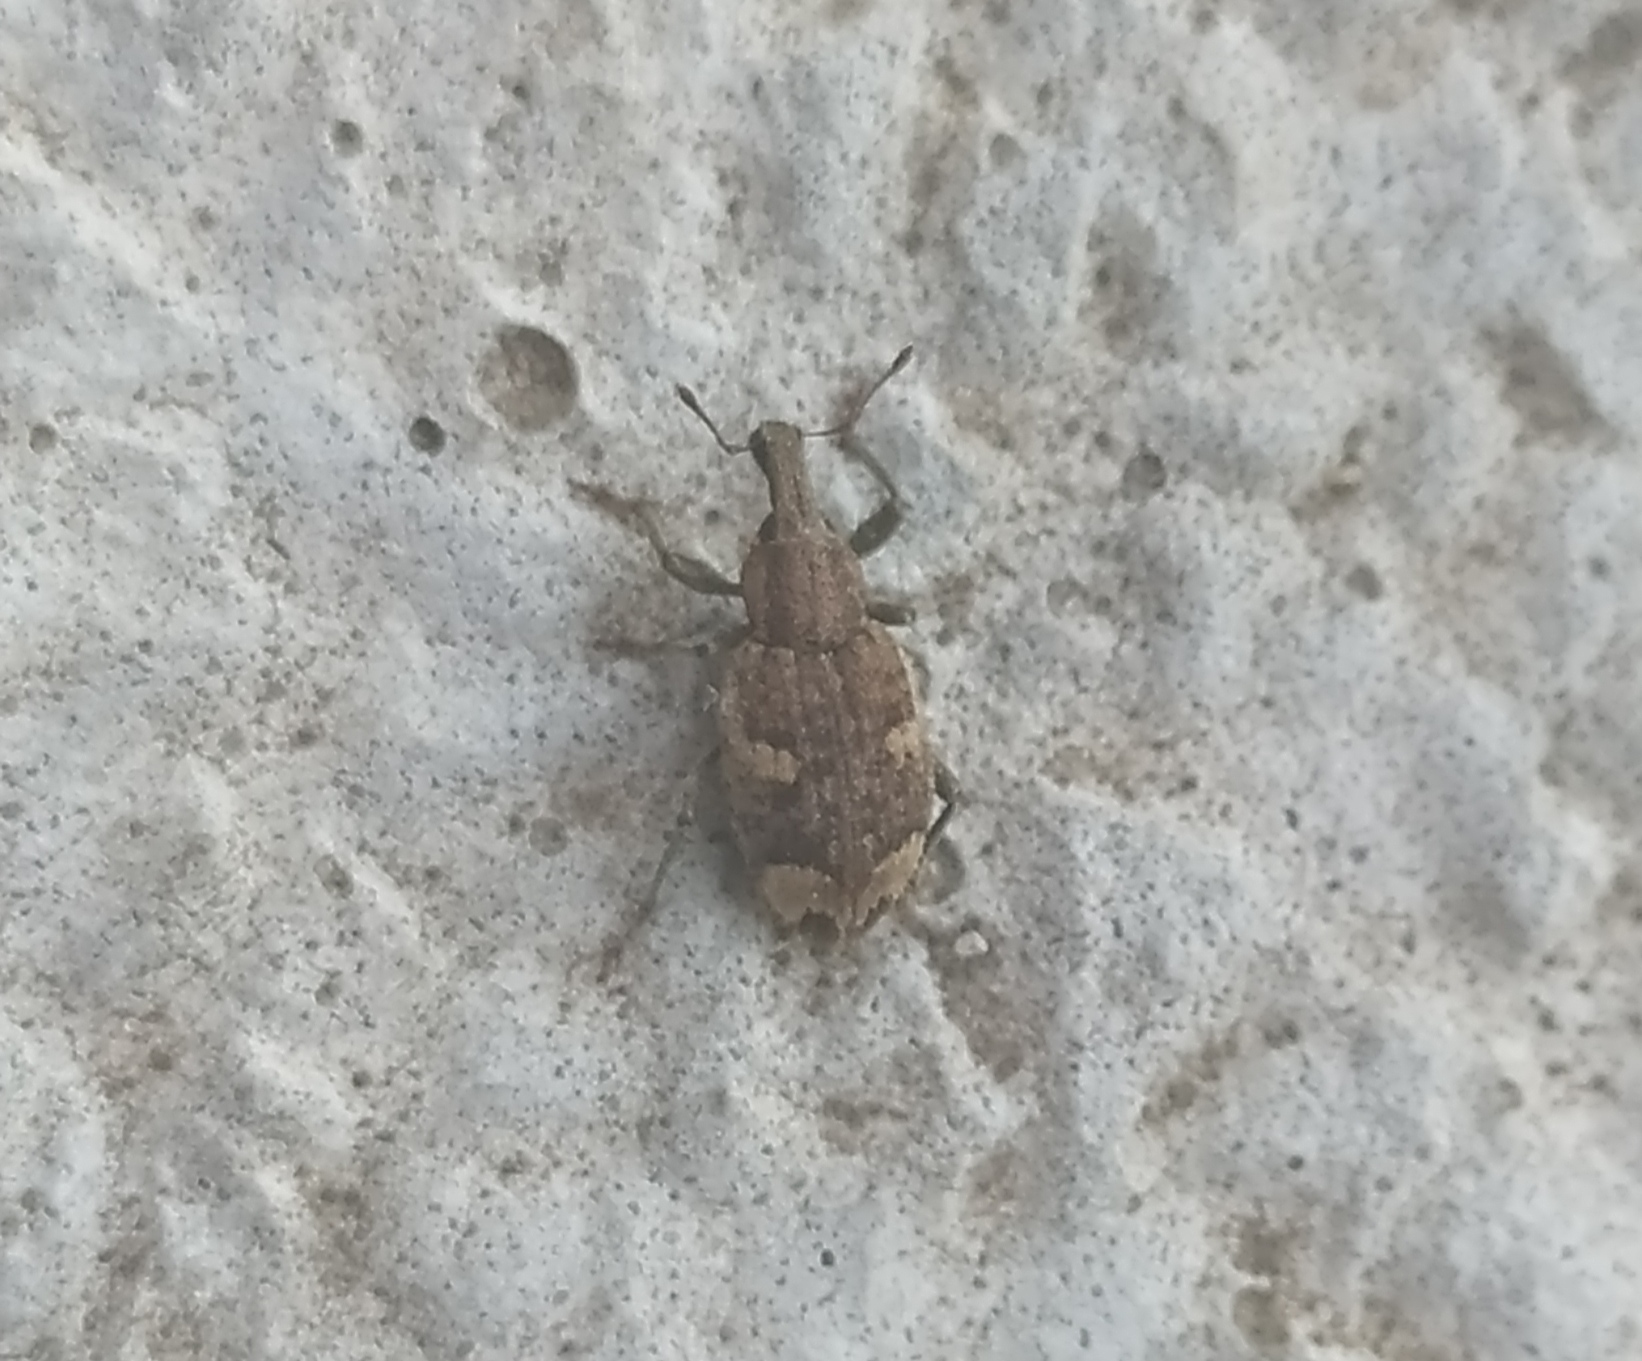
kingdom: Animalia
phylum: Arthropoda
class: Insecta
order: Coleoptera
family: Curculionidae
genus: Graptus
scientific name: Graptus triguttatus
